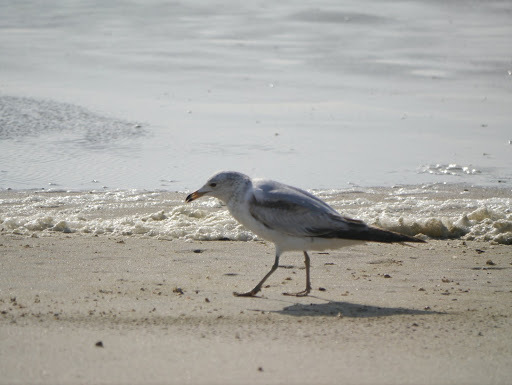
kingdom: Animalia
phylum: Chordata
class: Aves
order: Charadriiformes
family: Laridae
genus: Larus
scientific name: Larus delawarensis
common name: Ring-billed gull
